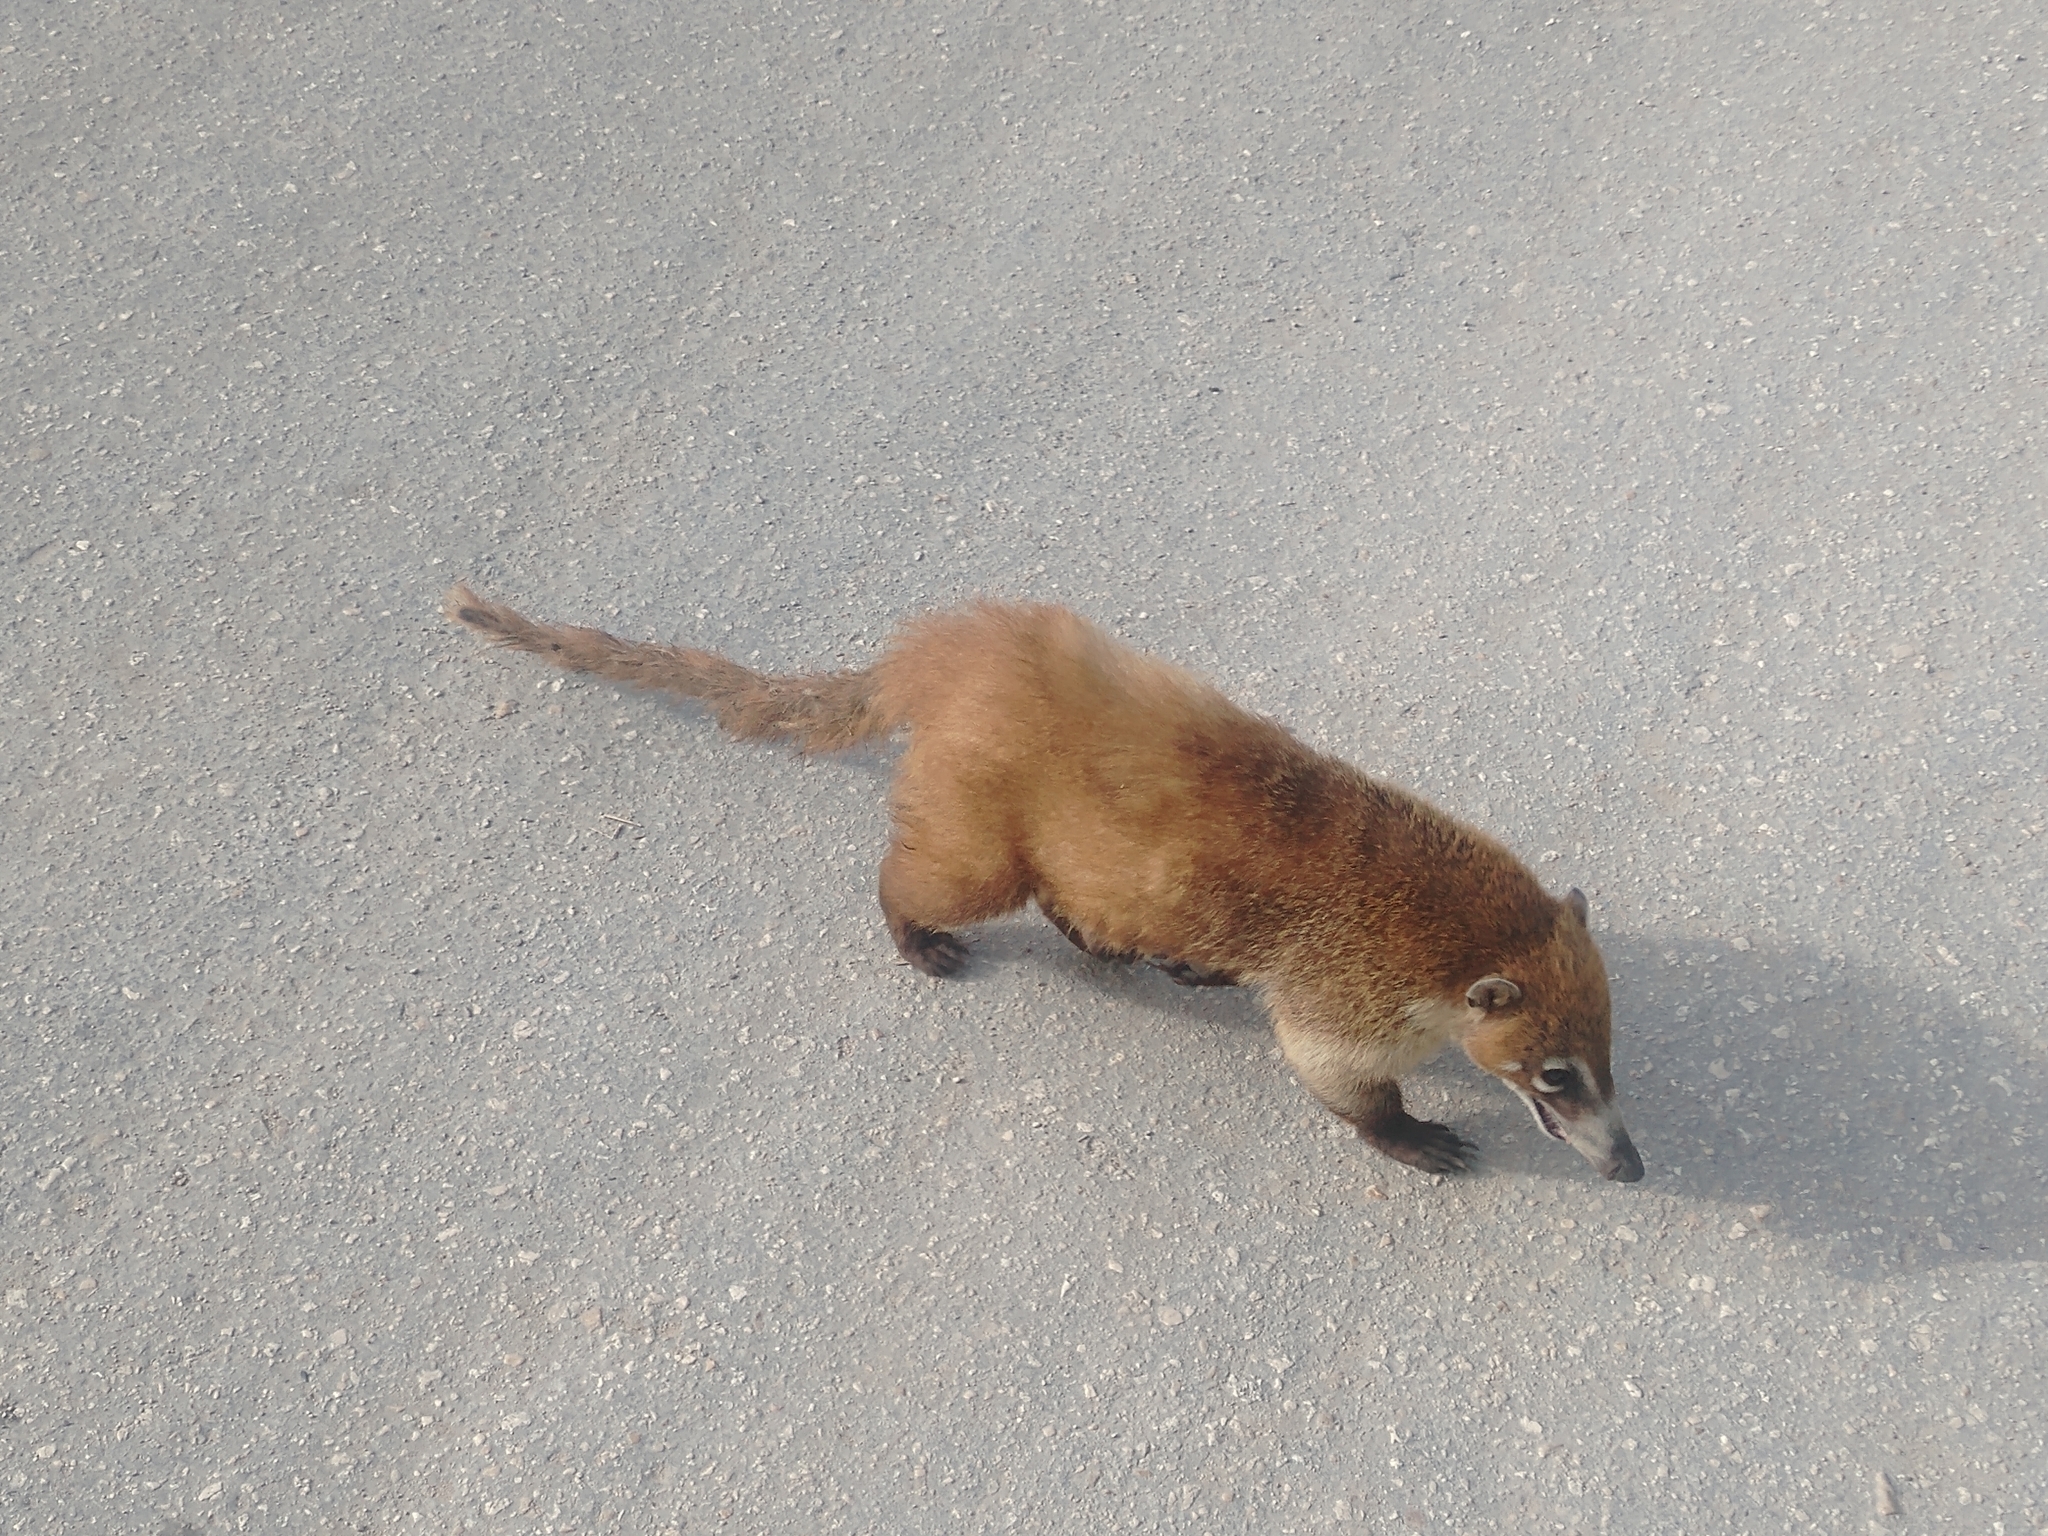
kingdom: Animalia
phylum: Chordata
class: Mammalia
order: Carnivora
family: Procyonidae
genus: Nasua
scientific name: Nasua narica
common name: White-nosed coati
